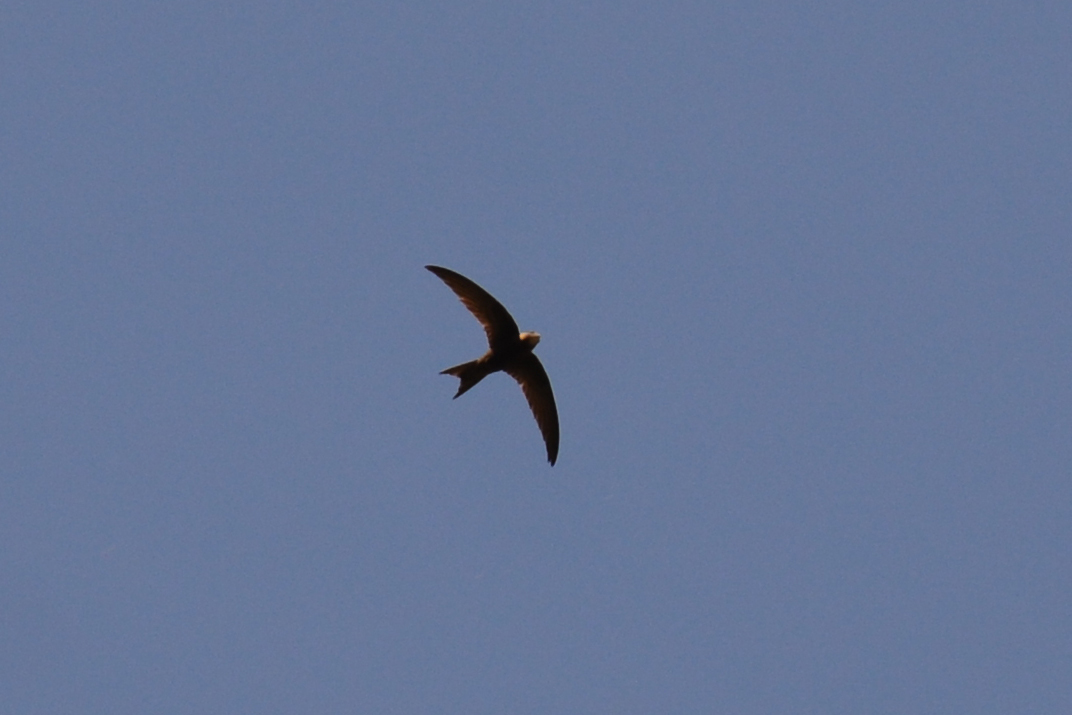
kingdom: Animalia
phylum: Chordata
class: Aves
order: Apodiformes
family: Apodidae
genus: Apus
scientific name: Apus apus
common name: Common swift
